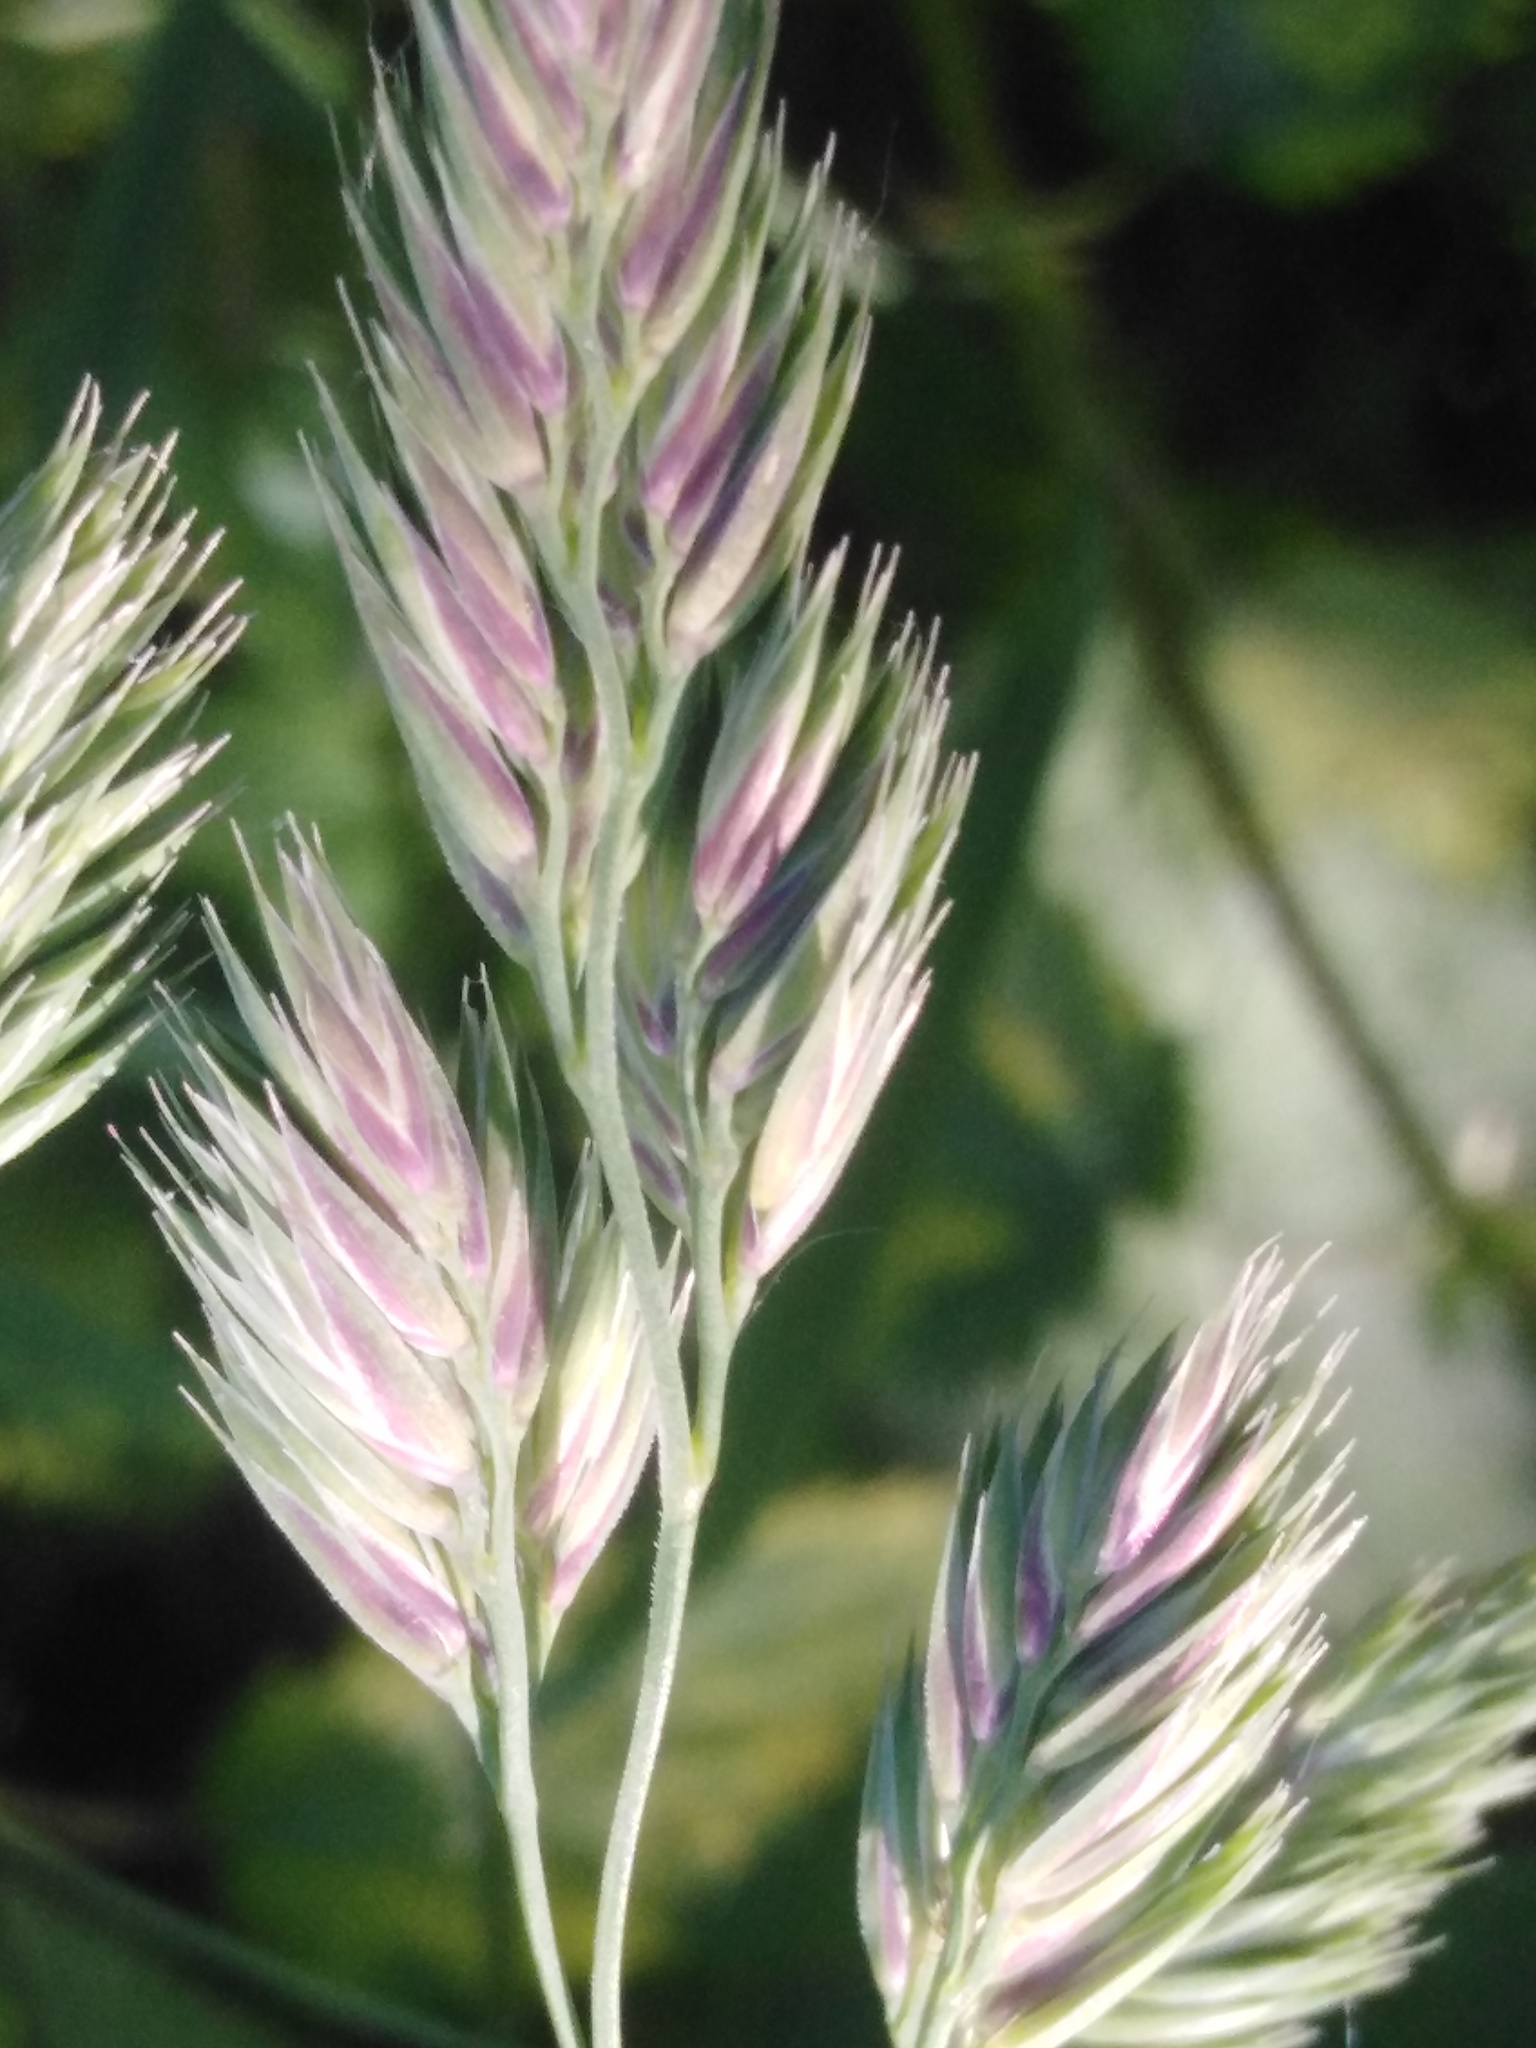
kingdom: Plantae
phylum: Tracheophyta
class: Liliopsida
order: Poales
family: Poaceae
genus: Dactylis
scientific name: Dactylis glomerata
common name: Orchardgrass
